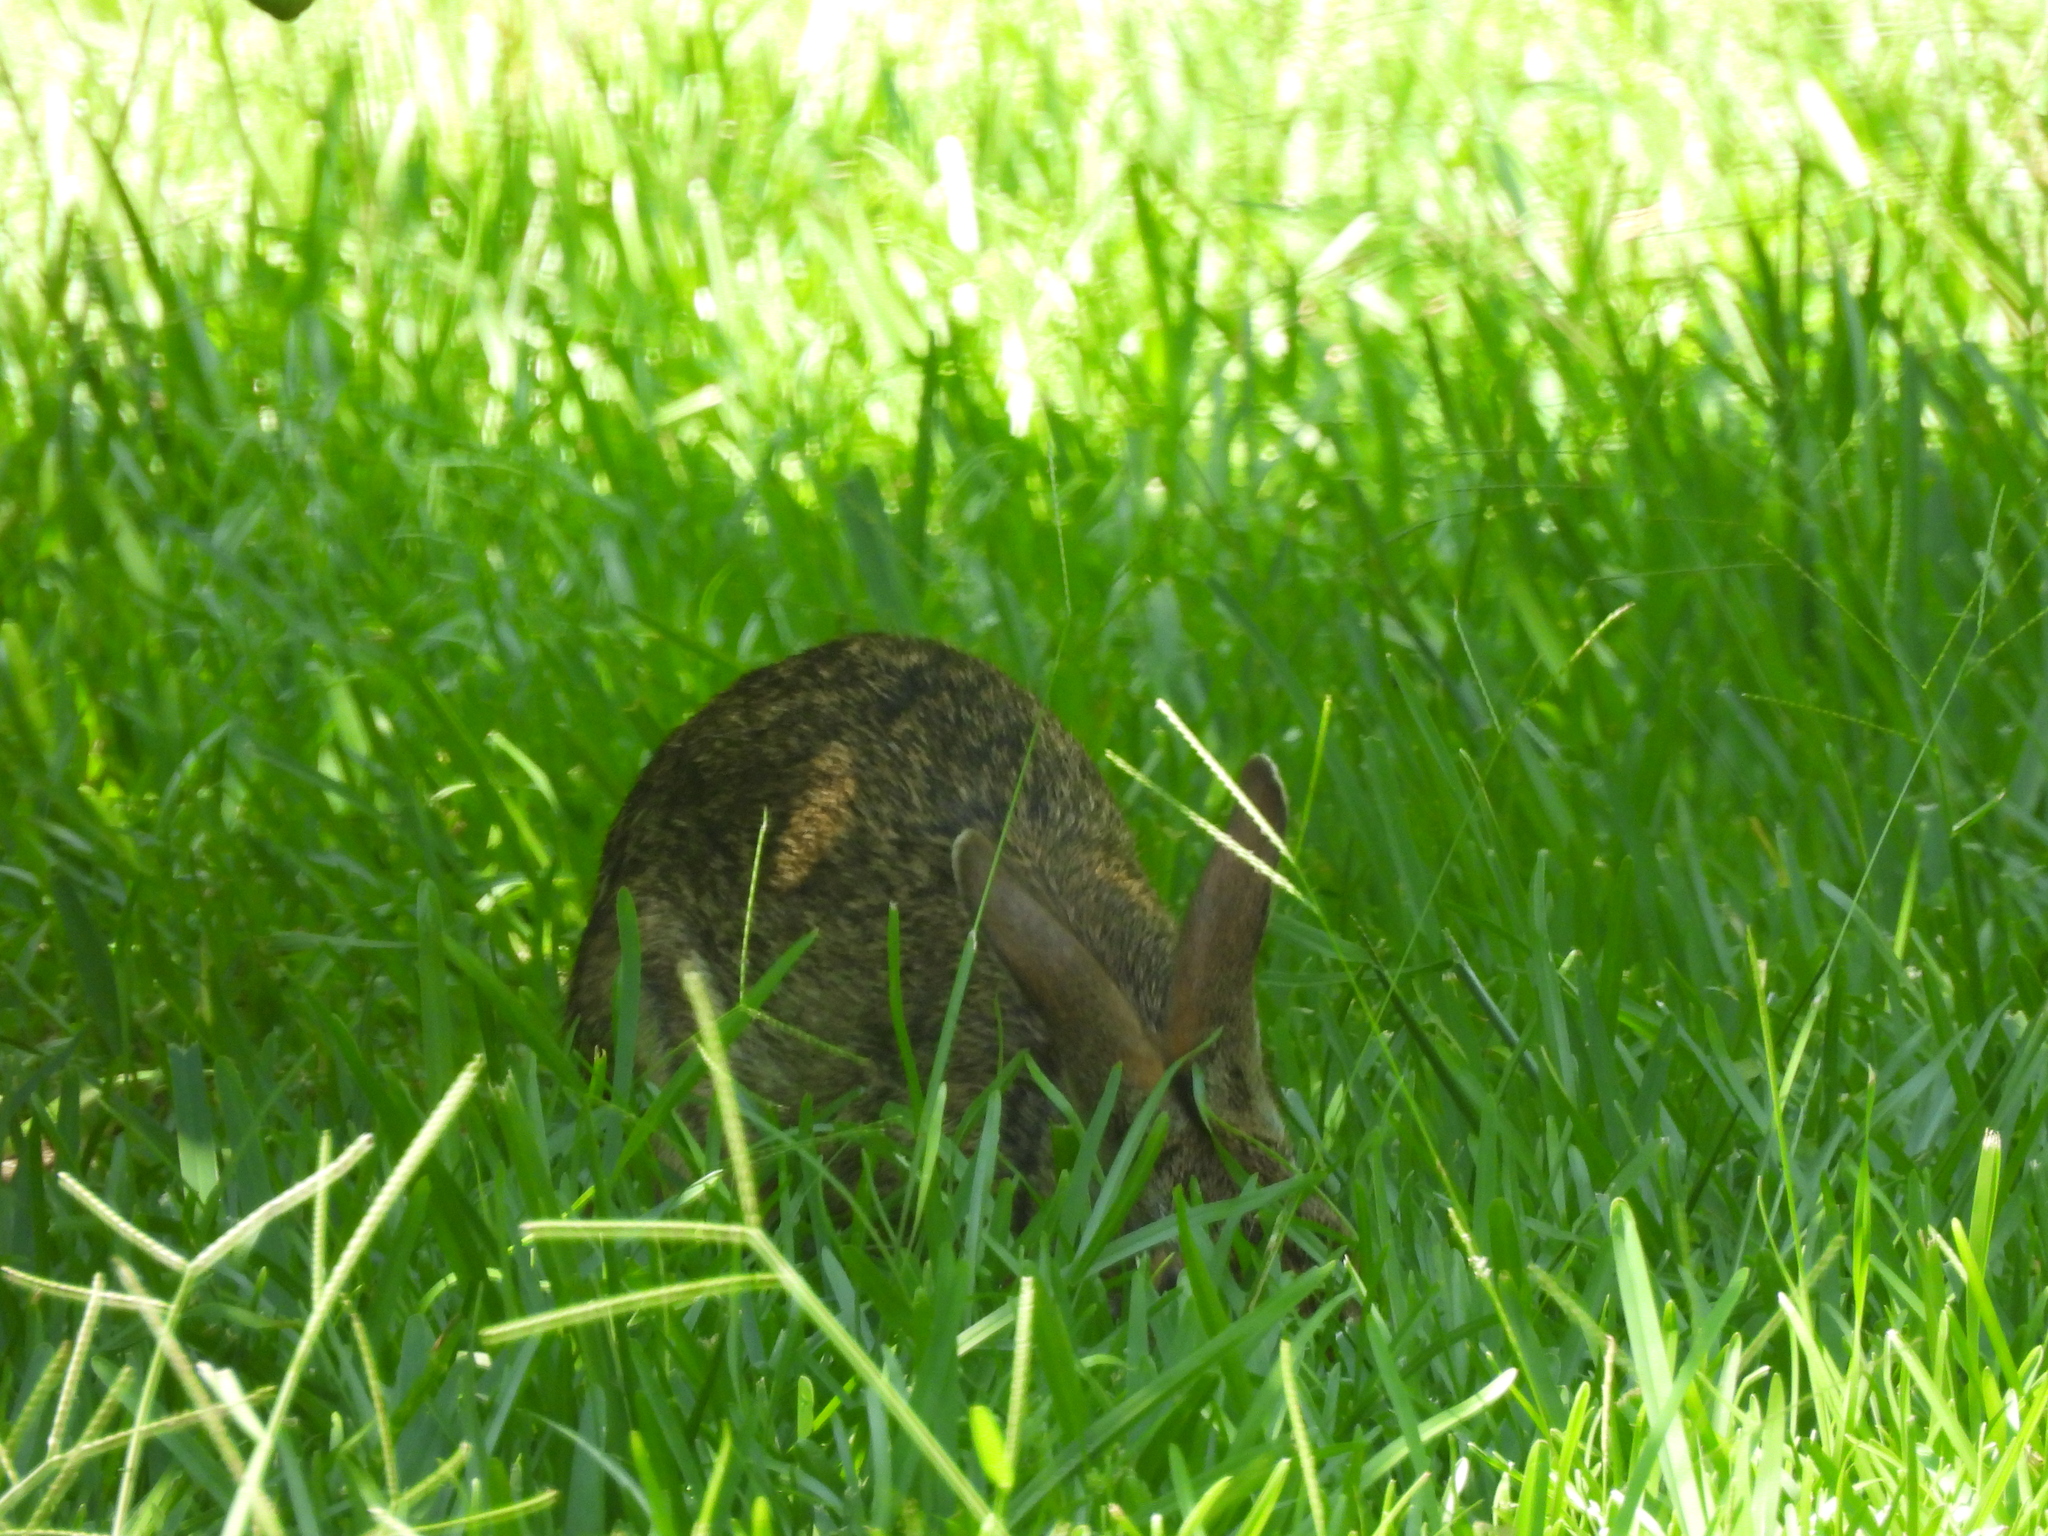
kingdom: Animalia
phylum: Chordata
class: Mammalia
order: Lagomorpha
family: Leporidae
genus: Sylvilagus
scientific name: Sylvilagus aquaticus
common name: Swamp rabbit
